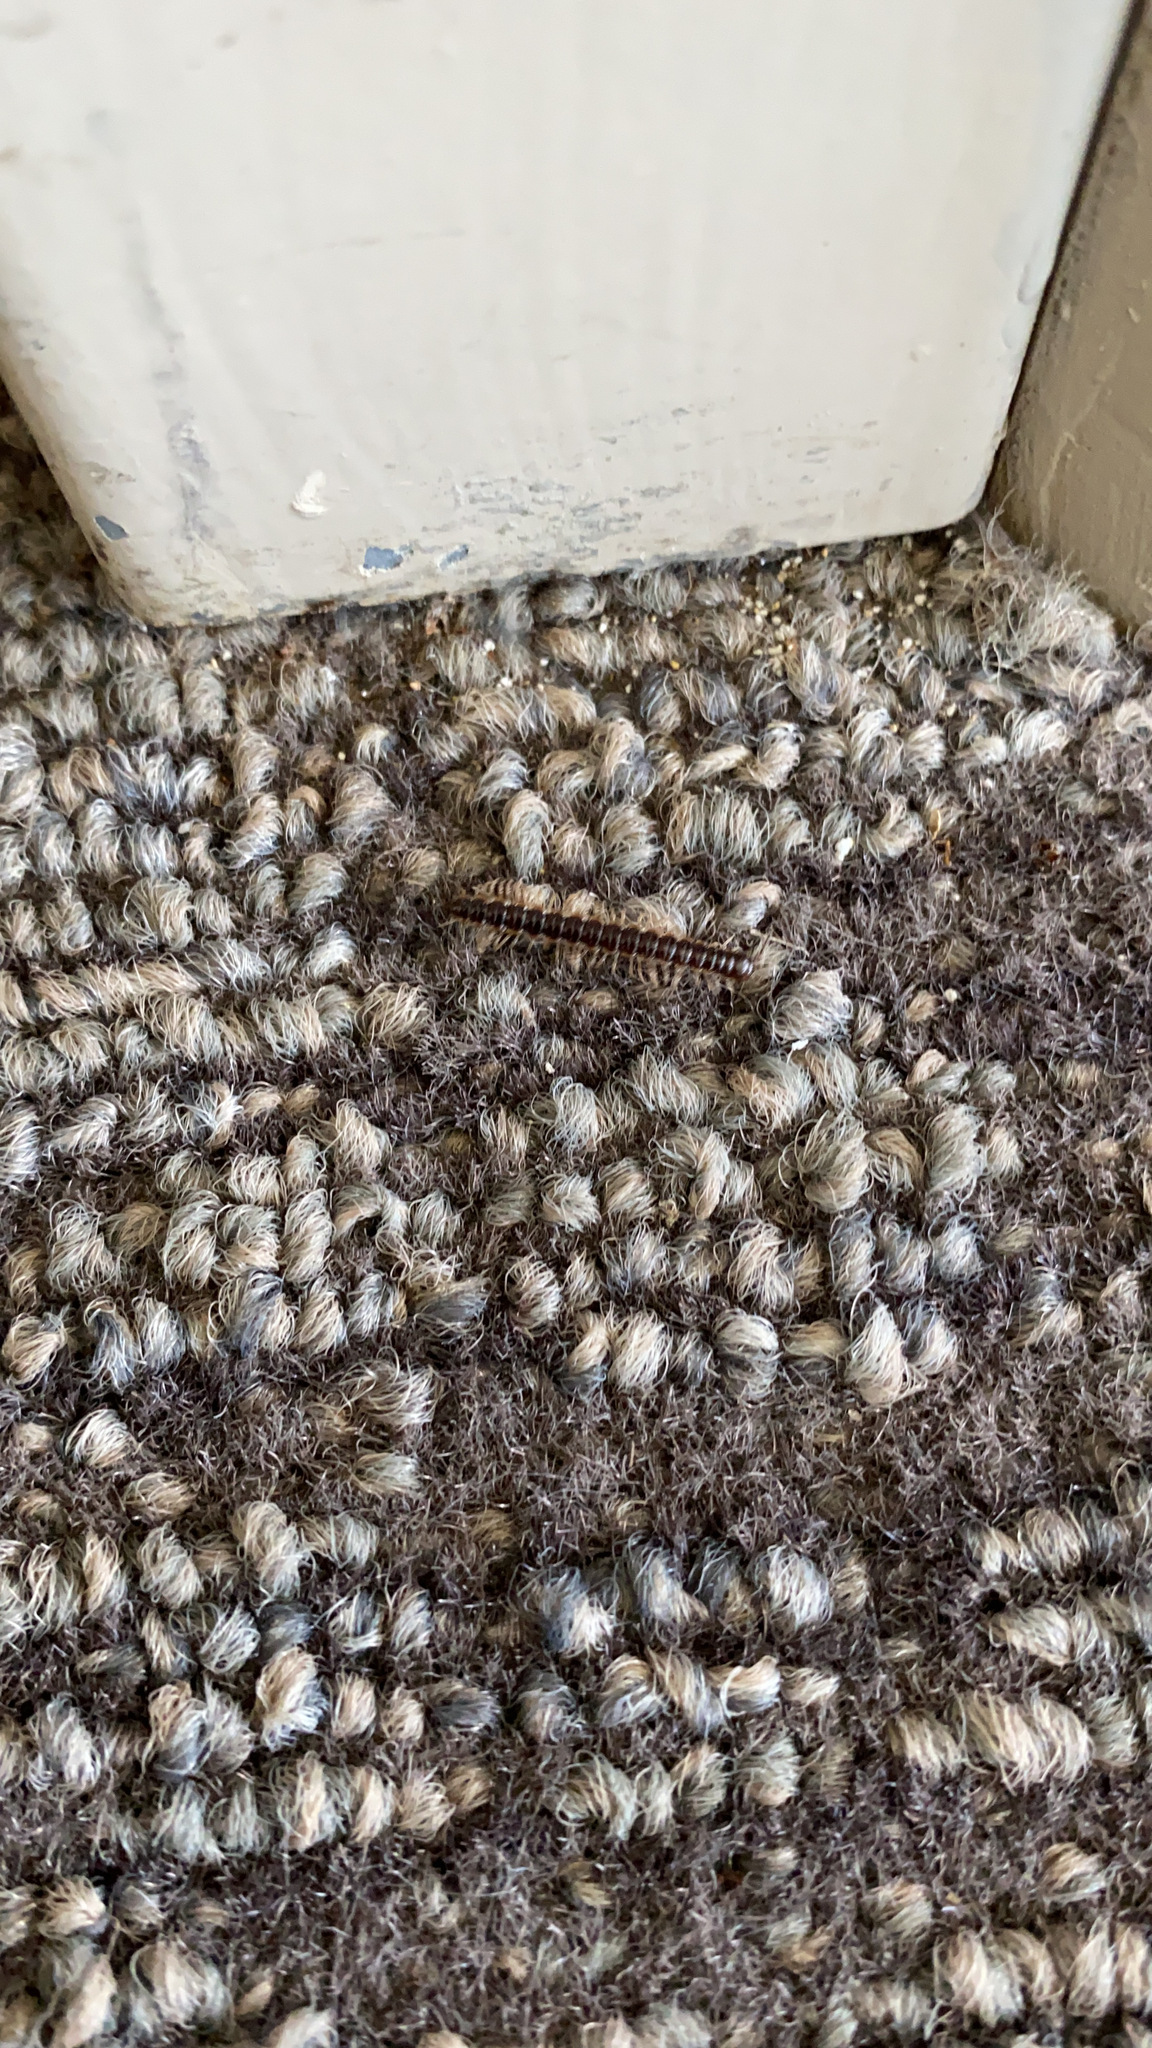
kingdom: Animalia
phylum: Arthropoda
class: Diplopoda
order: Polydesmida
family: Paradoxosomatidae
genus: Oxidus
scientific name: Oxidus gracilis
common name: Greenhouse millipede
